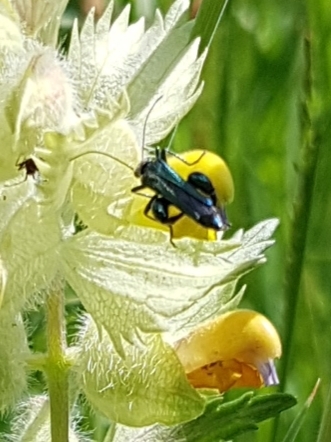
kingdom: Animalia
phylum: Arthropoda
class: Insecta
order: Coleoptera
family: Oedemeridae
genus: Oedemera
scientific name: Oedemera nobilis
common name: Swollen-thighed beetle
